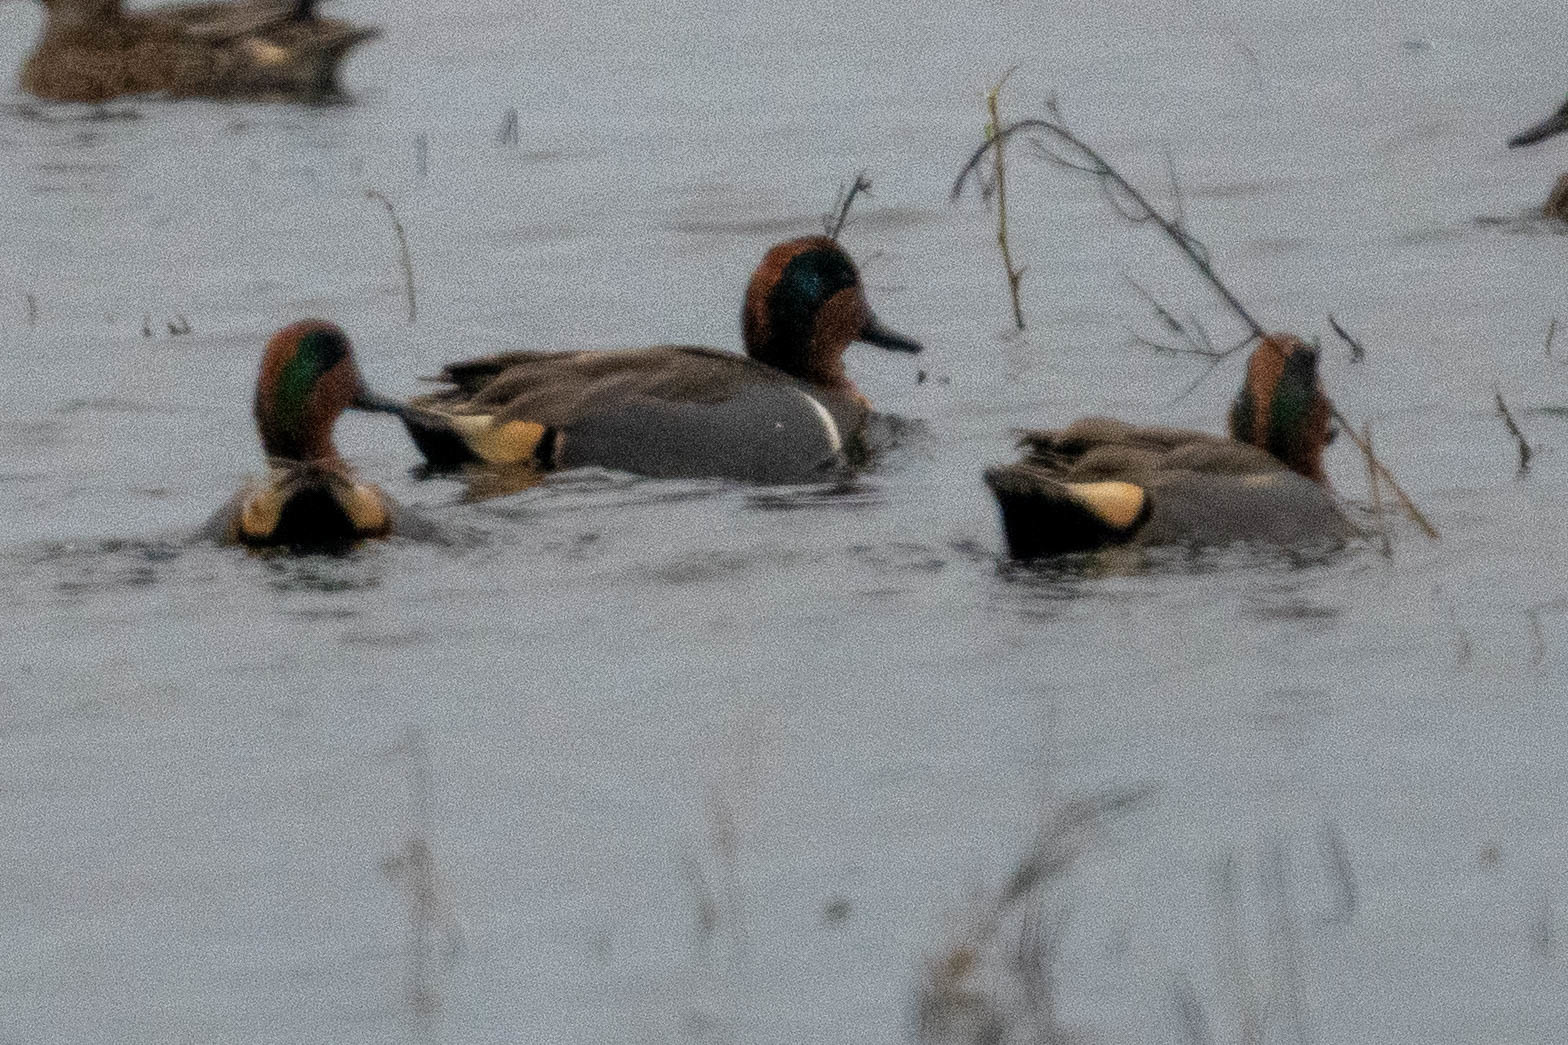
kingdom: Animalia
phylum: Chordata
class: Aves
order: Anseriformes
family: Anatidae
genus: Anas
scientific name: Anas crecca
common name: Eurasian teal
